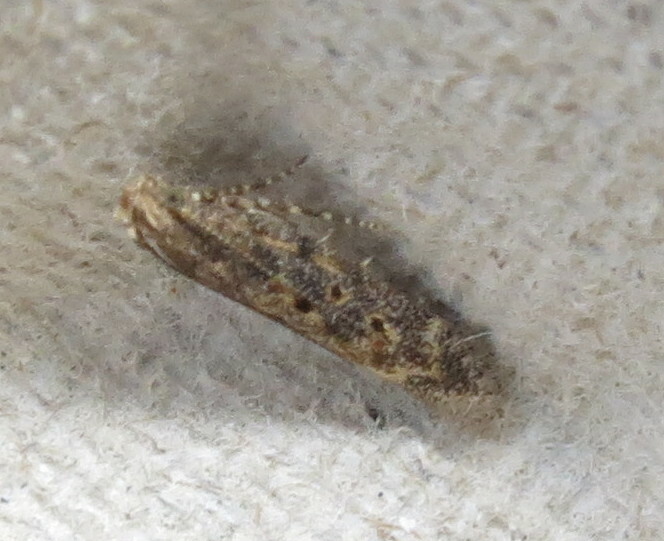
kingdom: Animalia
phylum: Arthropoda
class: Insecta
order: Lepidoptera
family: Gelechiidae
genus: Scrobipalpa
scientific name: Scrobipalpa ocellatella
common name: Beet moth
